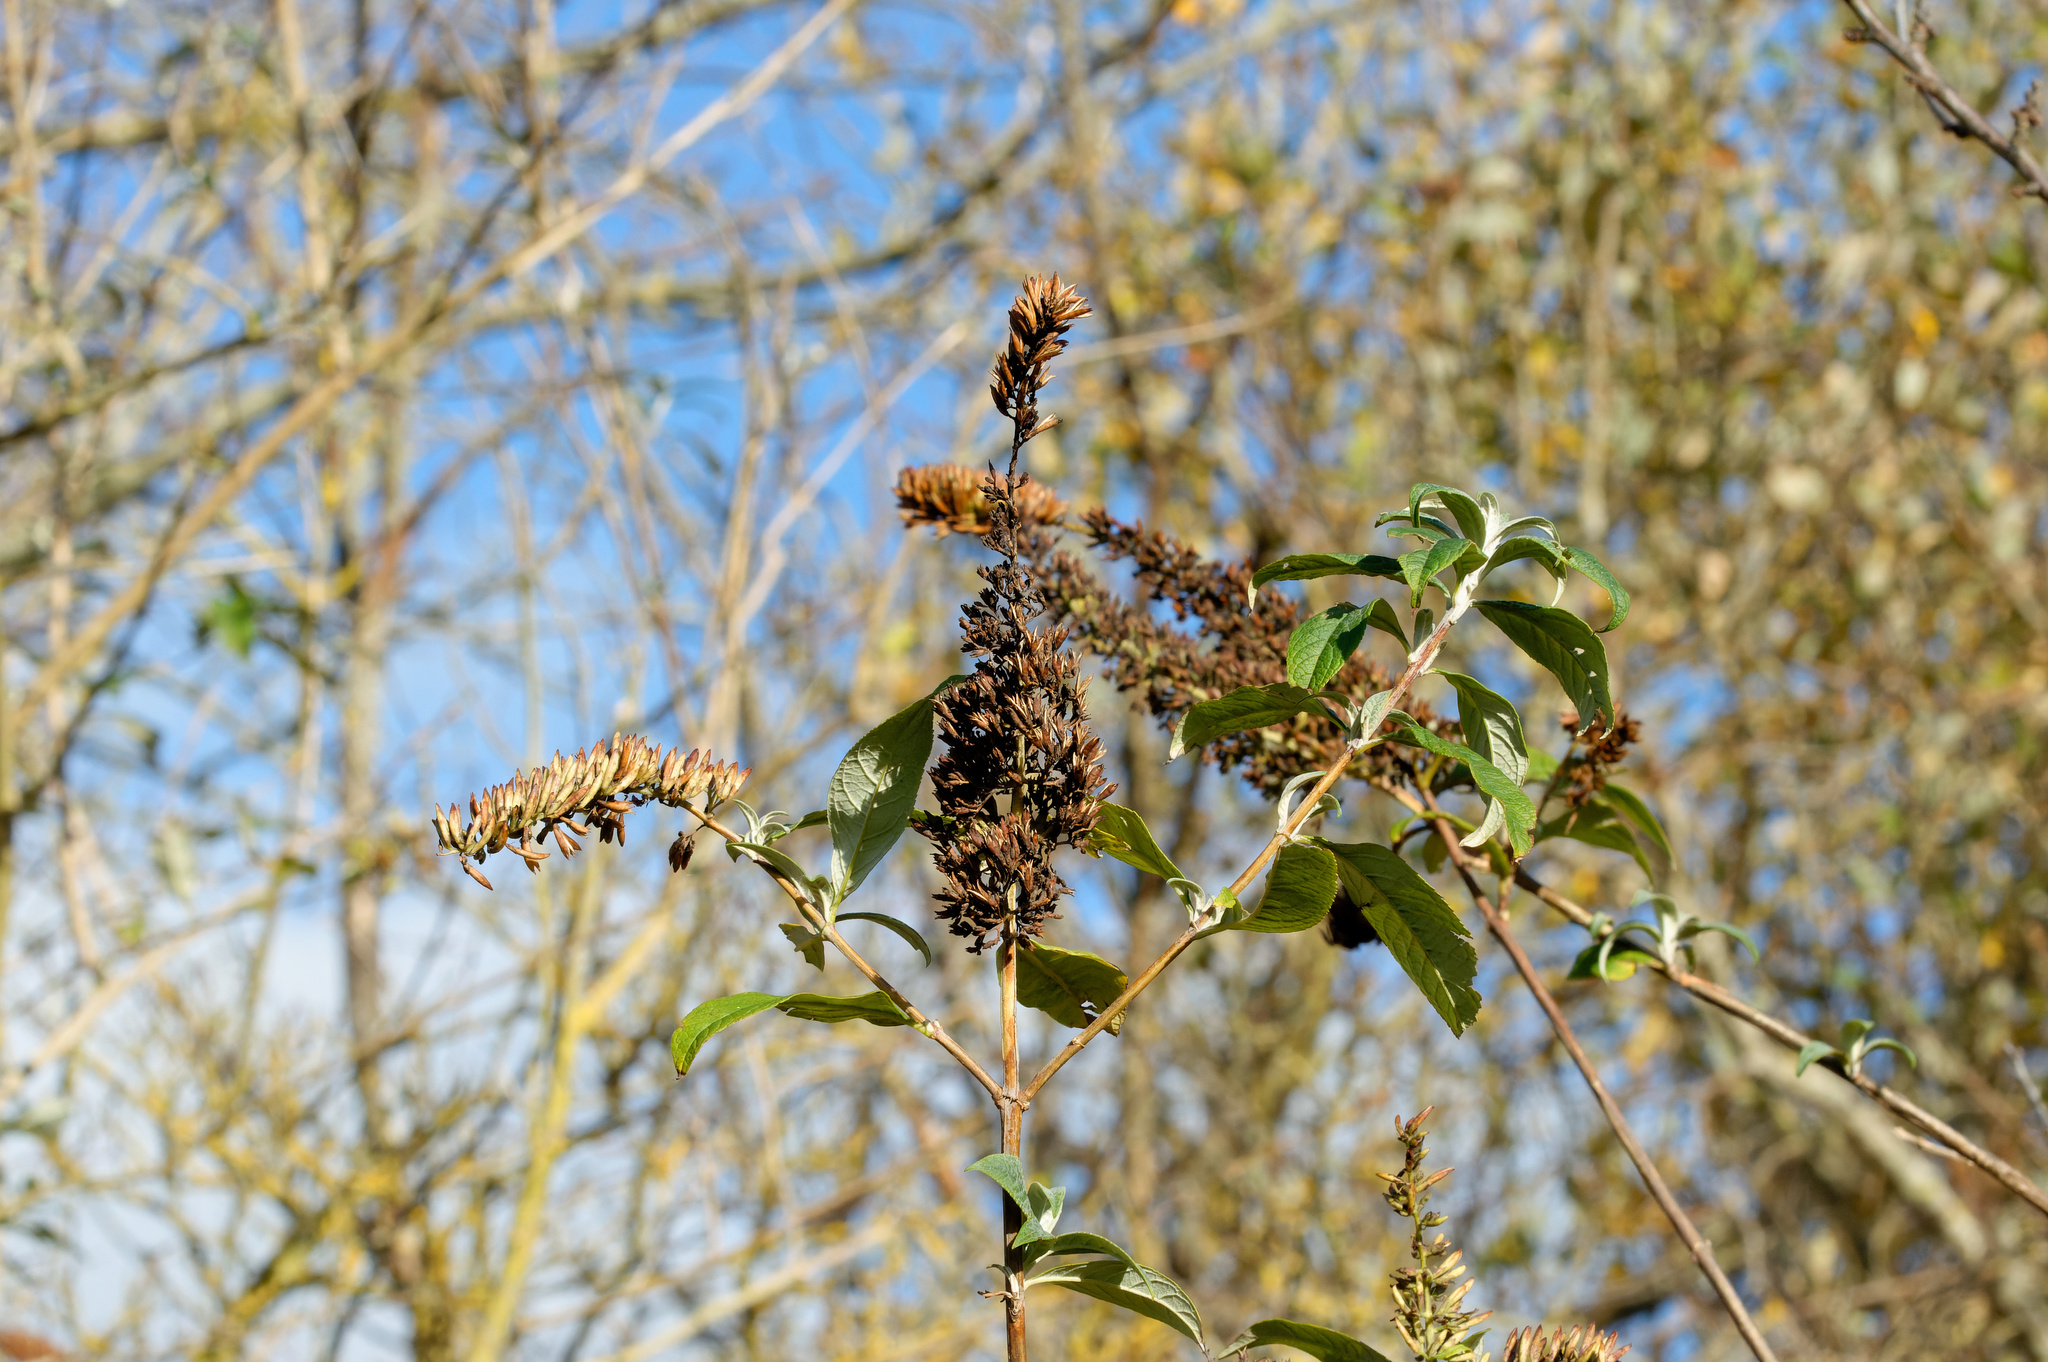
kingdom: Plantae
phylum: Tracheophyta
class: Magnoliopsida
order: Lamiales
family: Scrophulariaceae
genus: Buddleja
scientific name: Buddleja davidii
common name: Butterfly-bush
